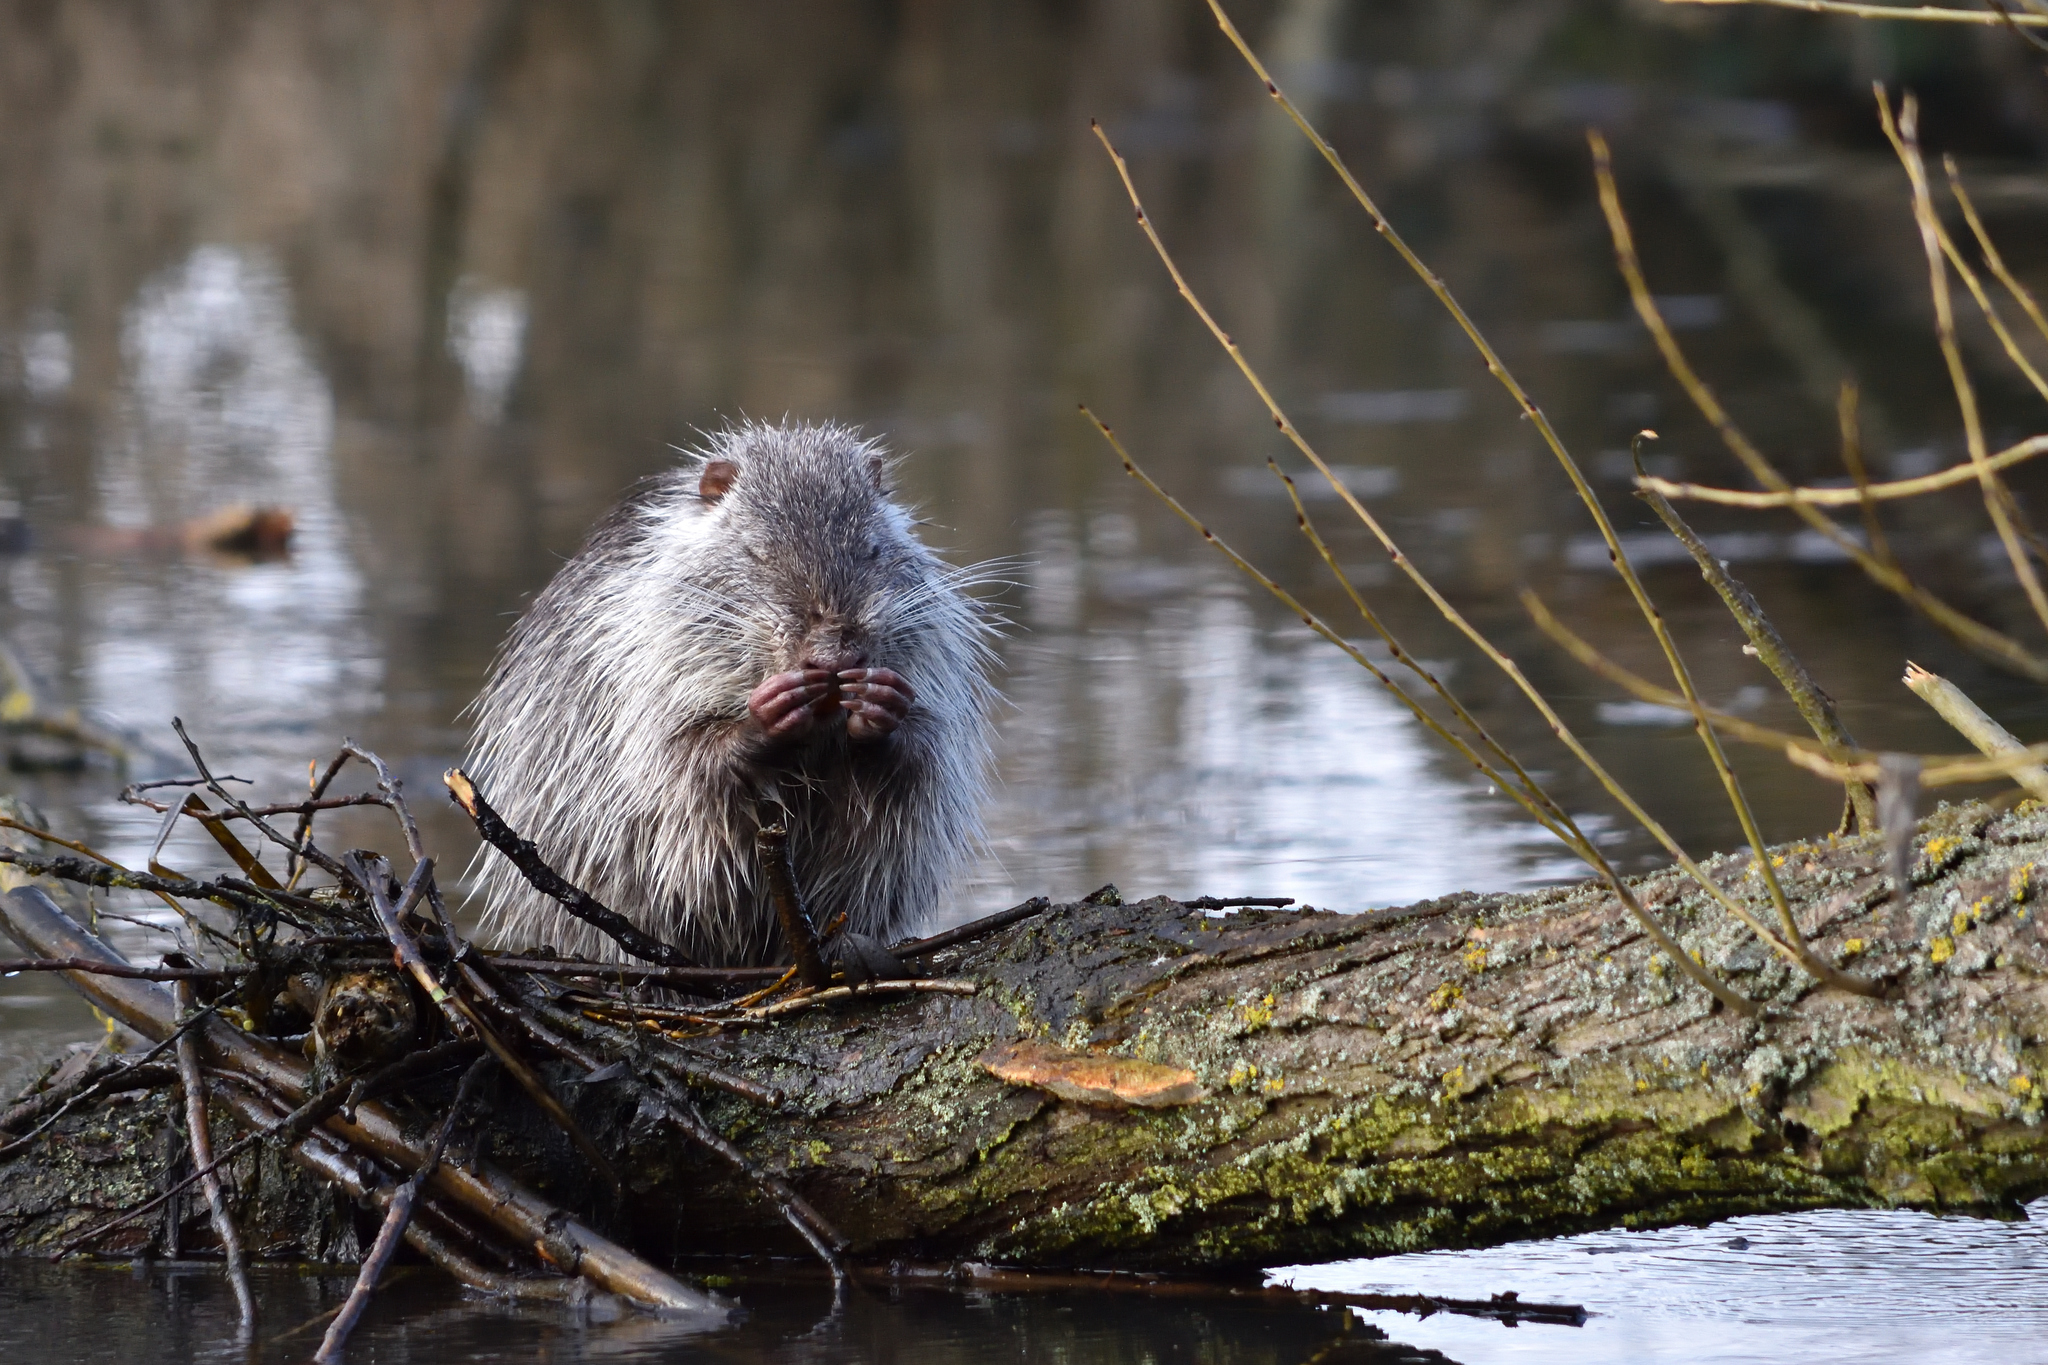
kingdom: Animalia
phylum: Chordata
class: Mammalia
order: Rodentia
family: Myocastoridae
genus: Myocastor
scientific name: Myocastor coypus
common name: Coypu
